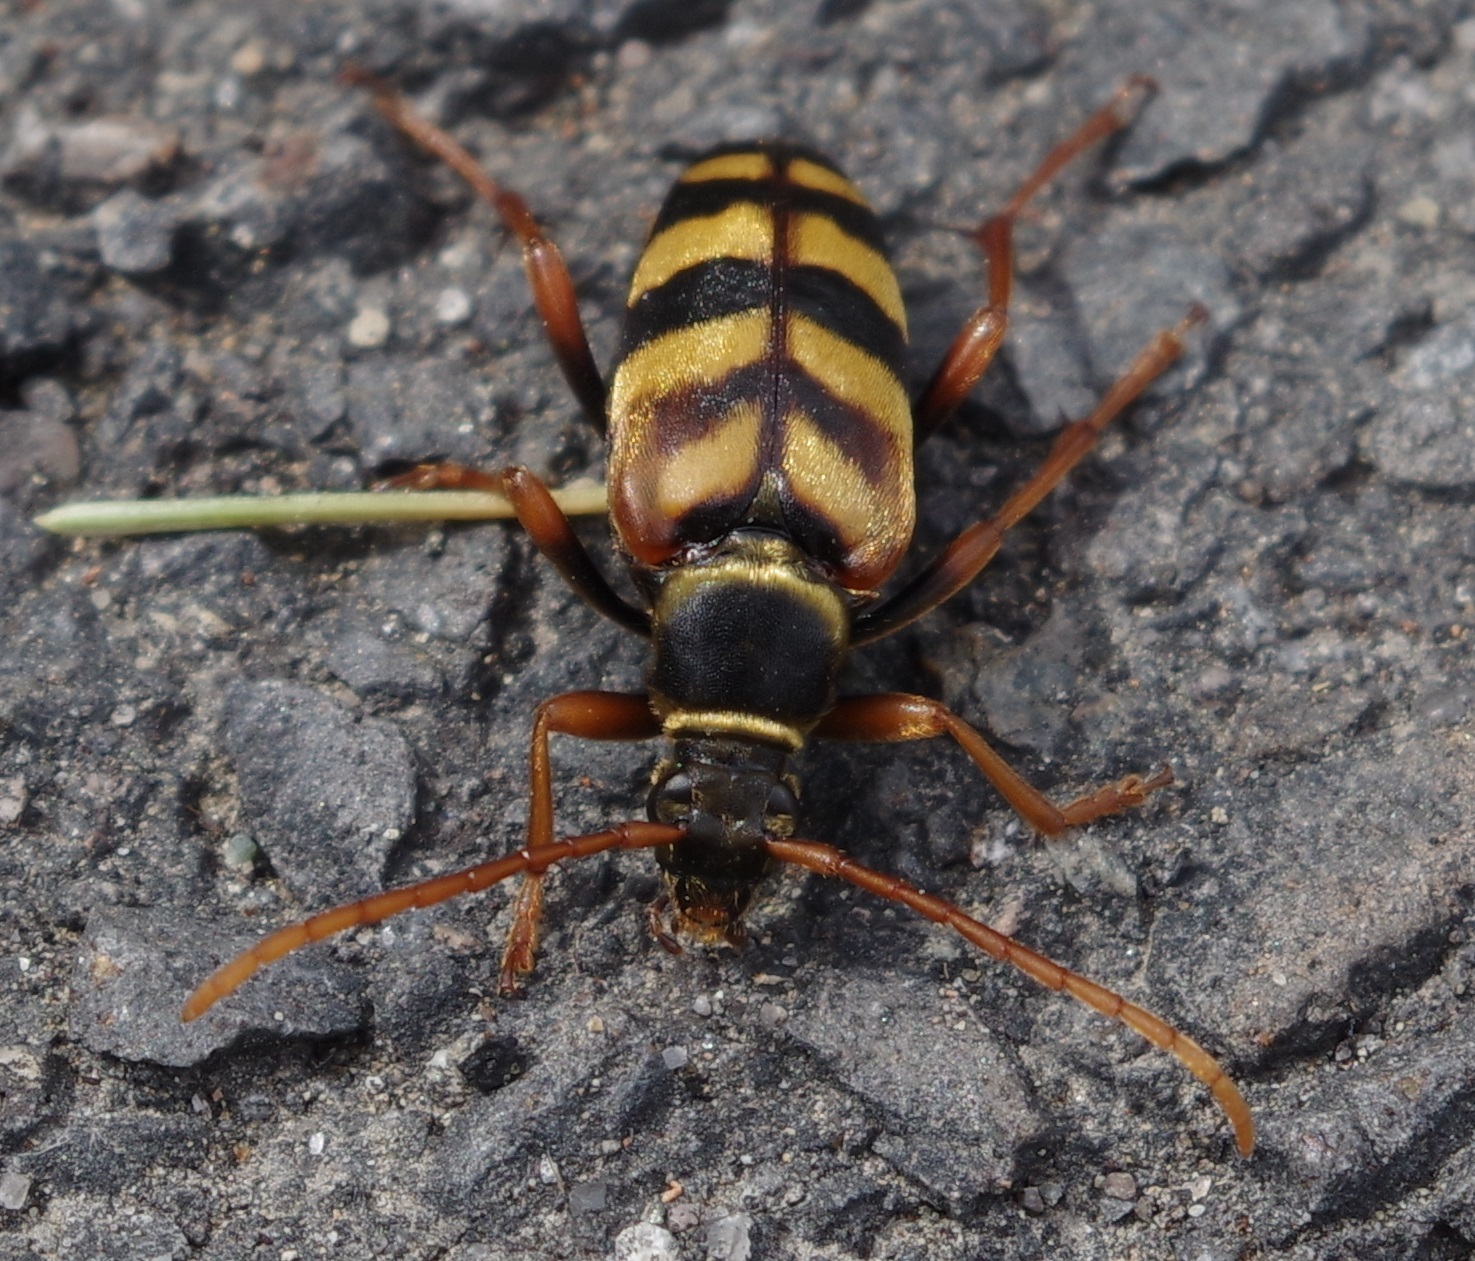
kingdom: Animalia
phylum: Arthropoda
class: Insecta
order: Coleoptera
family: Cerambycidae
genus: Leptura
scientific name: Leptura aurulenta
